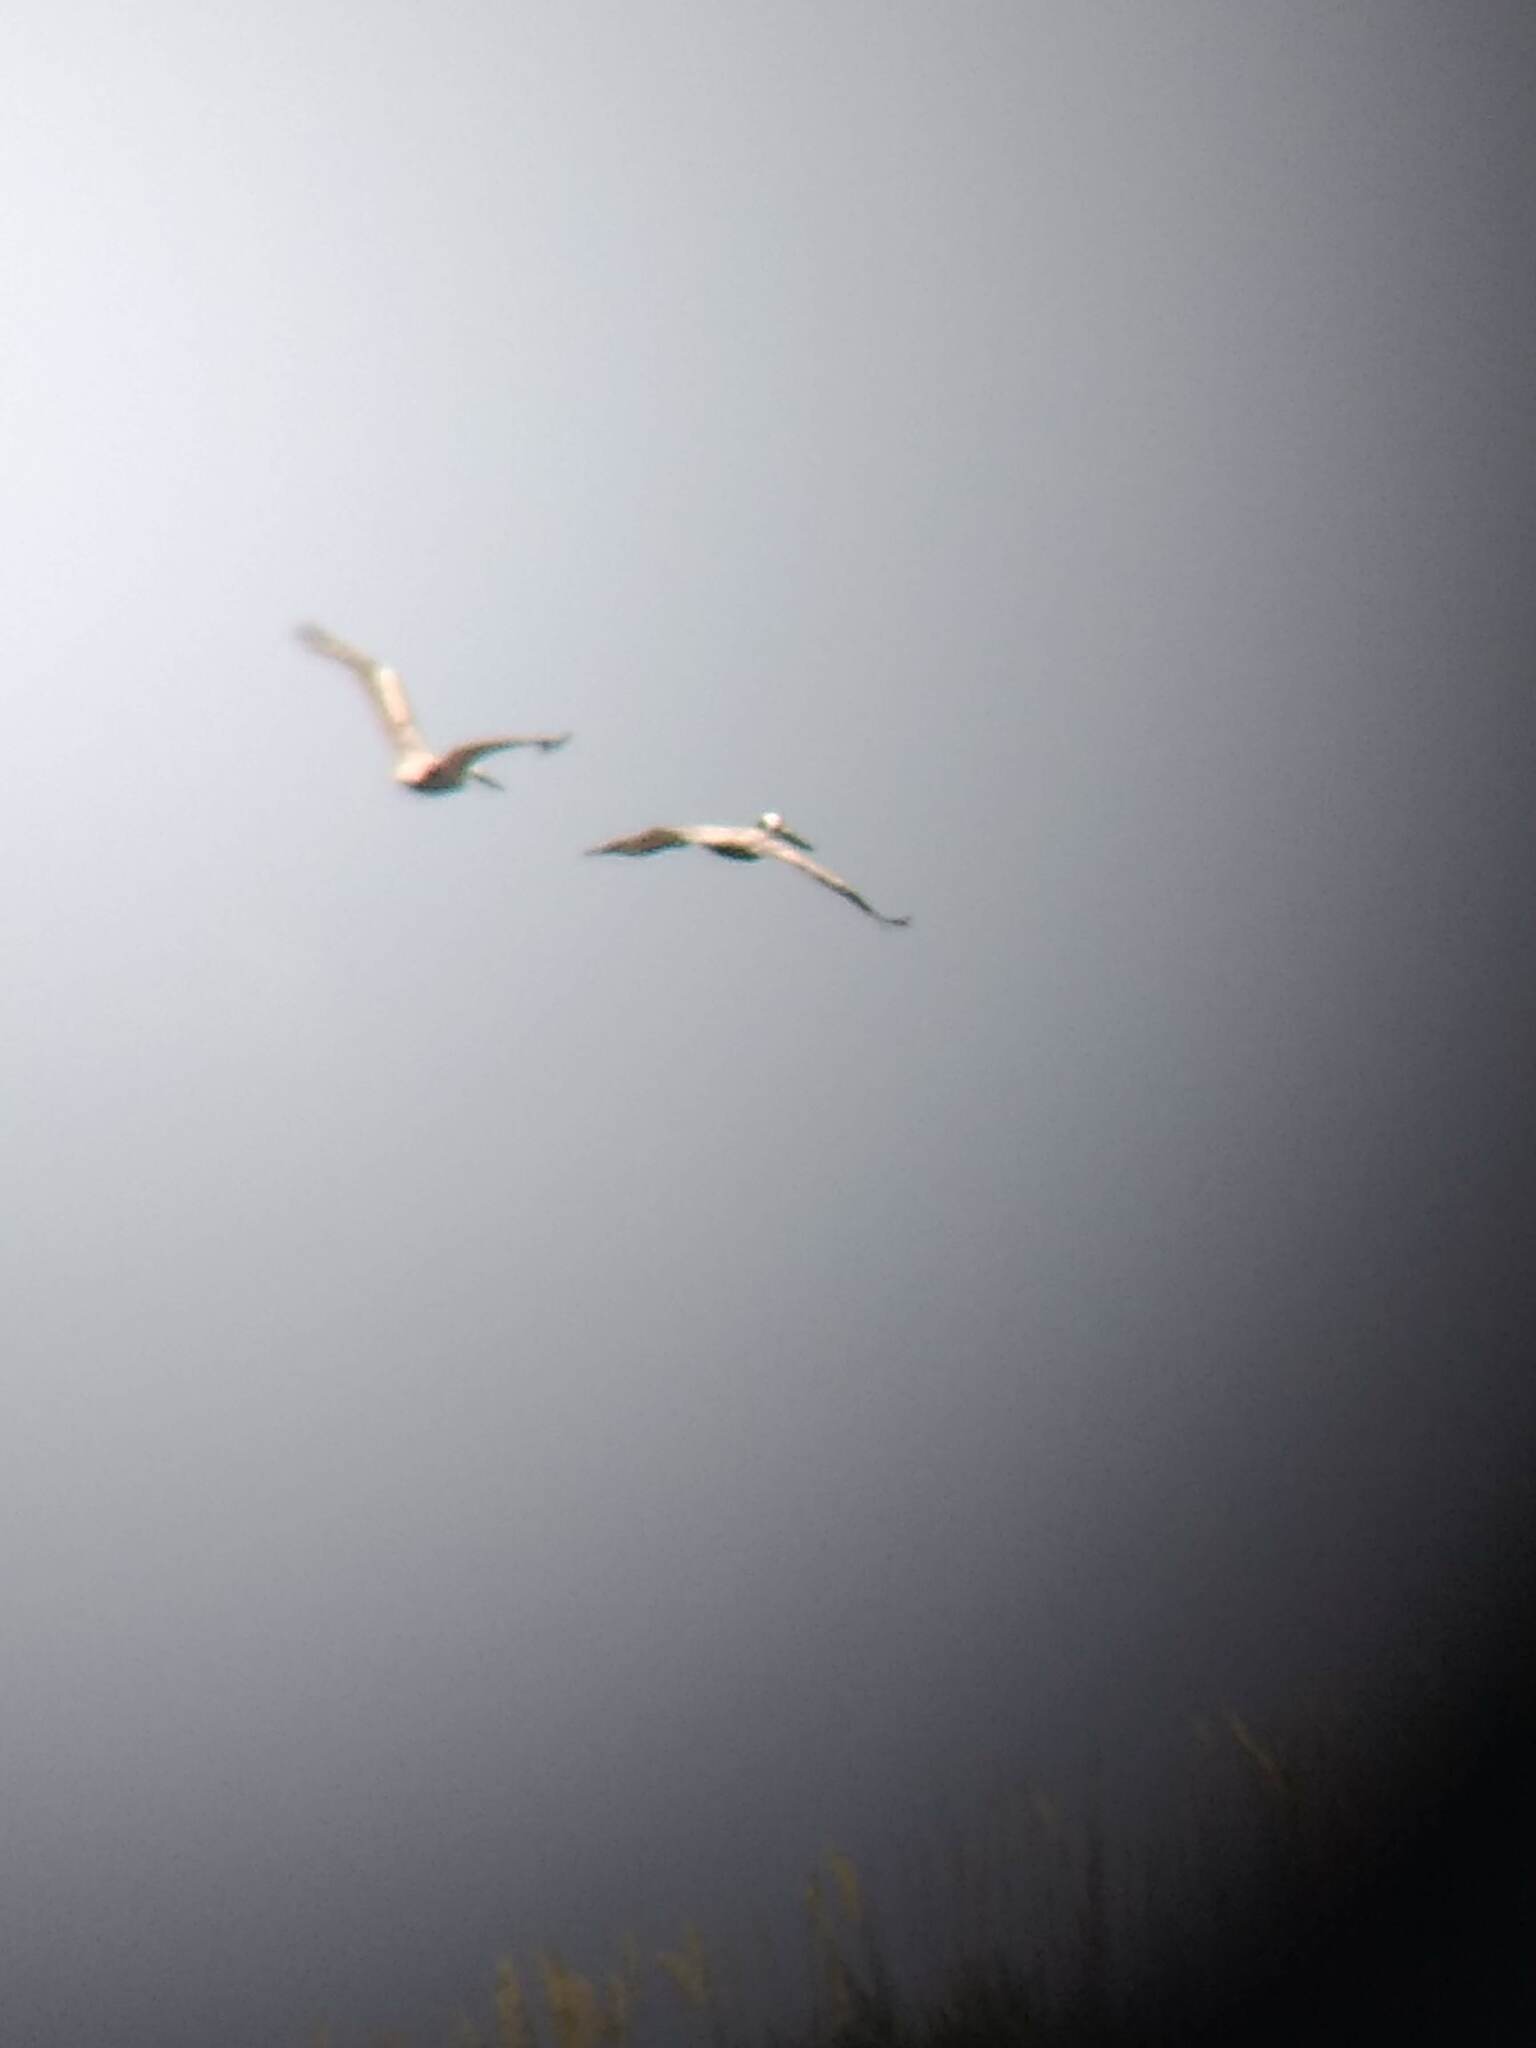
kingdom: Animalia
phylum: Chordata
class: Aves
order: Pelecaniformes
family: Pelecanidae
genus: Pelecanus
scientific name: Pelecanus occidentalis
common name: Brown pelican
